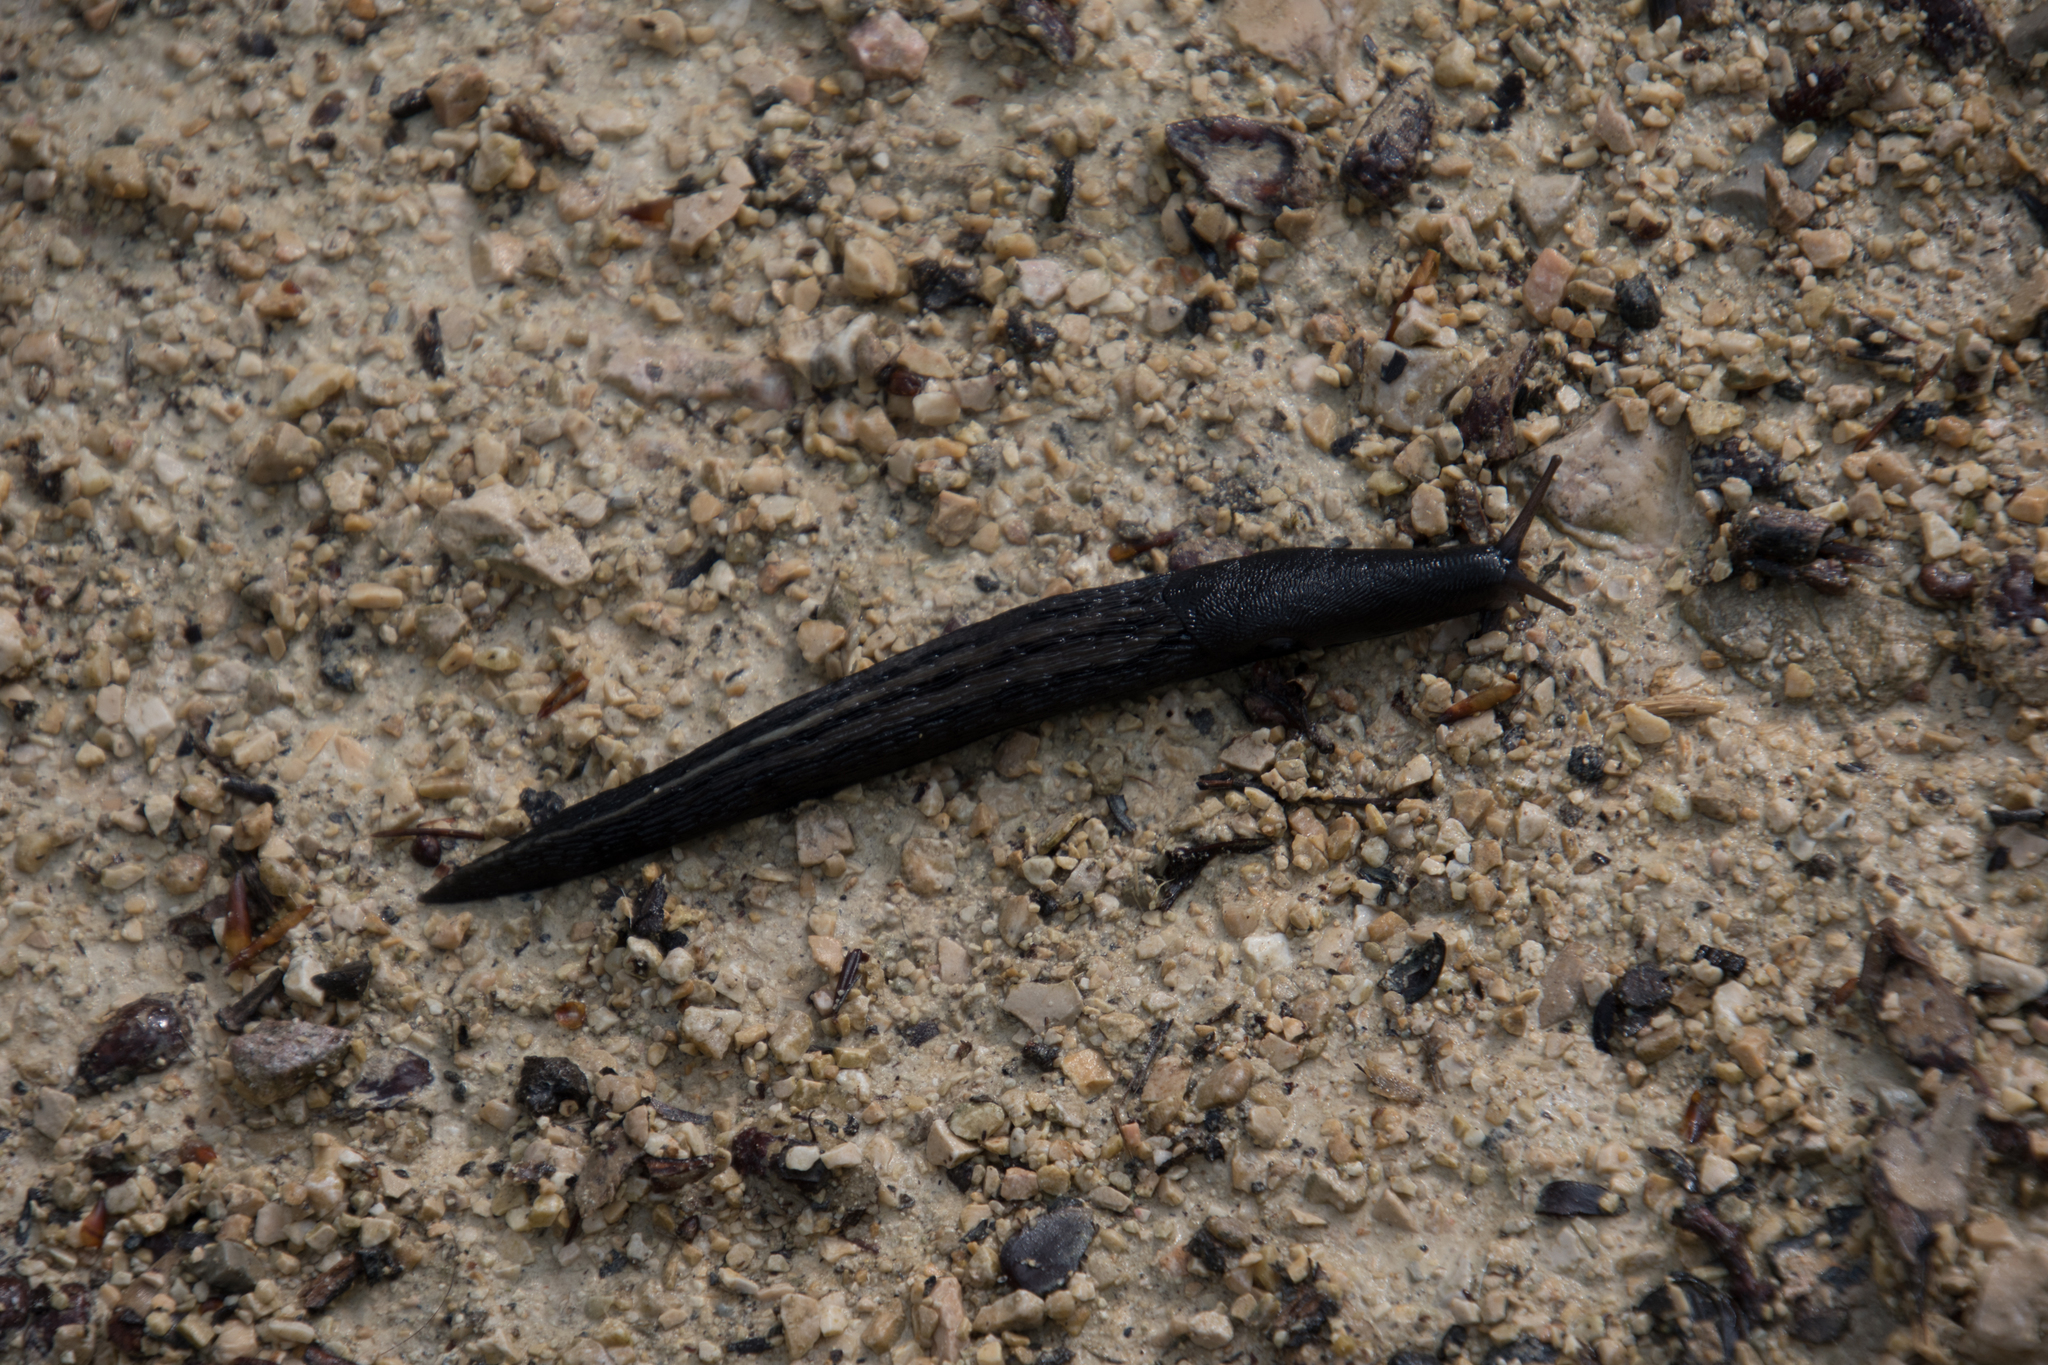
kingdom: Animalia
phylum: Mollusca
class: Gastropoda
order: Stylommatophora
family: Limacidae
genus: Limax
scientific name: Limax cinereoniger
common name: Ash-black slug
